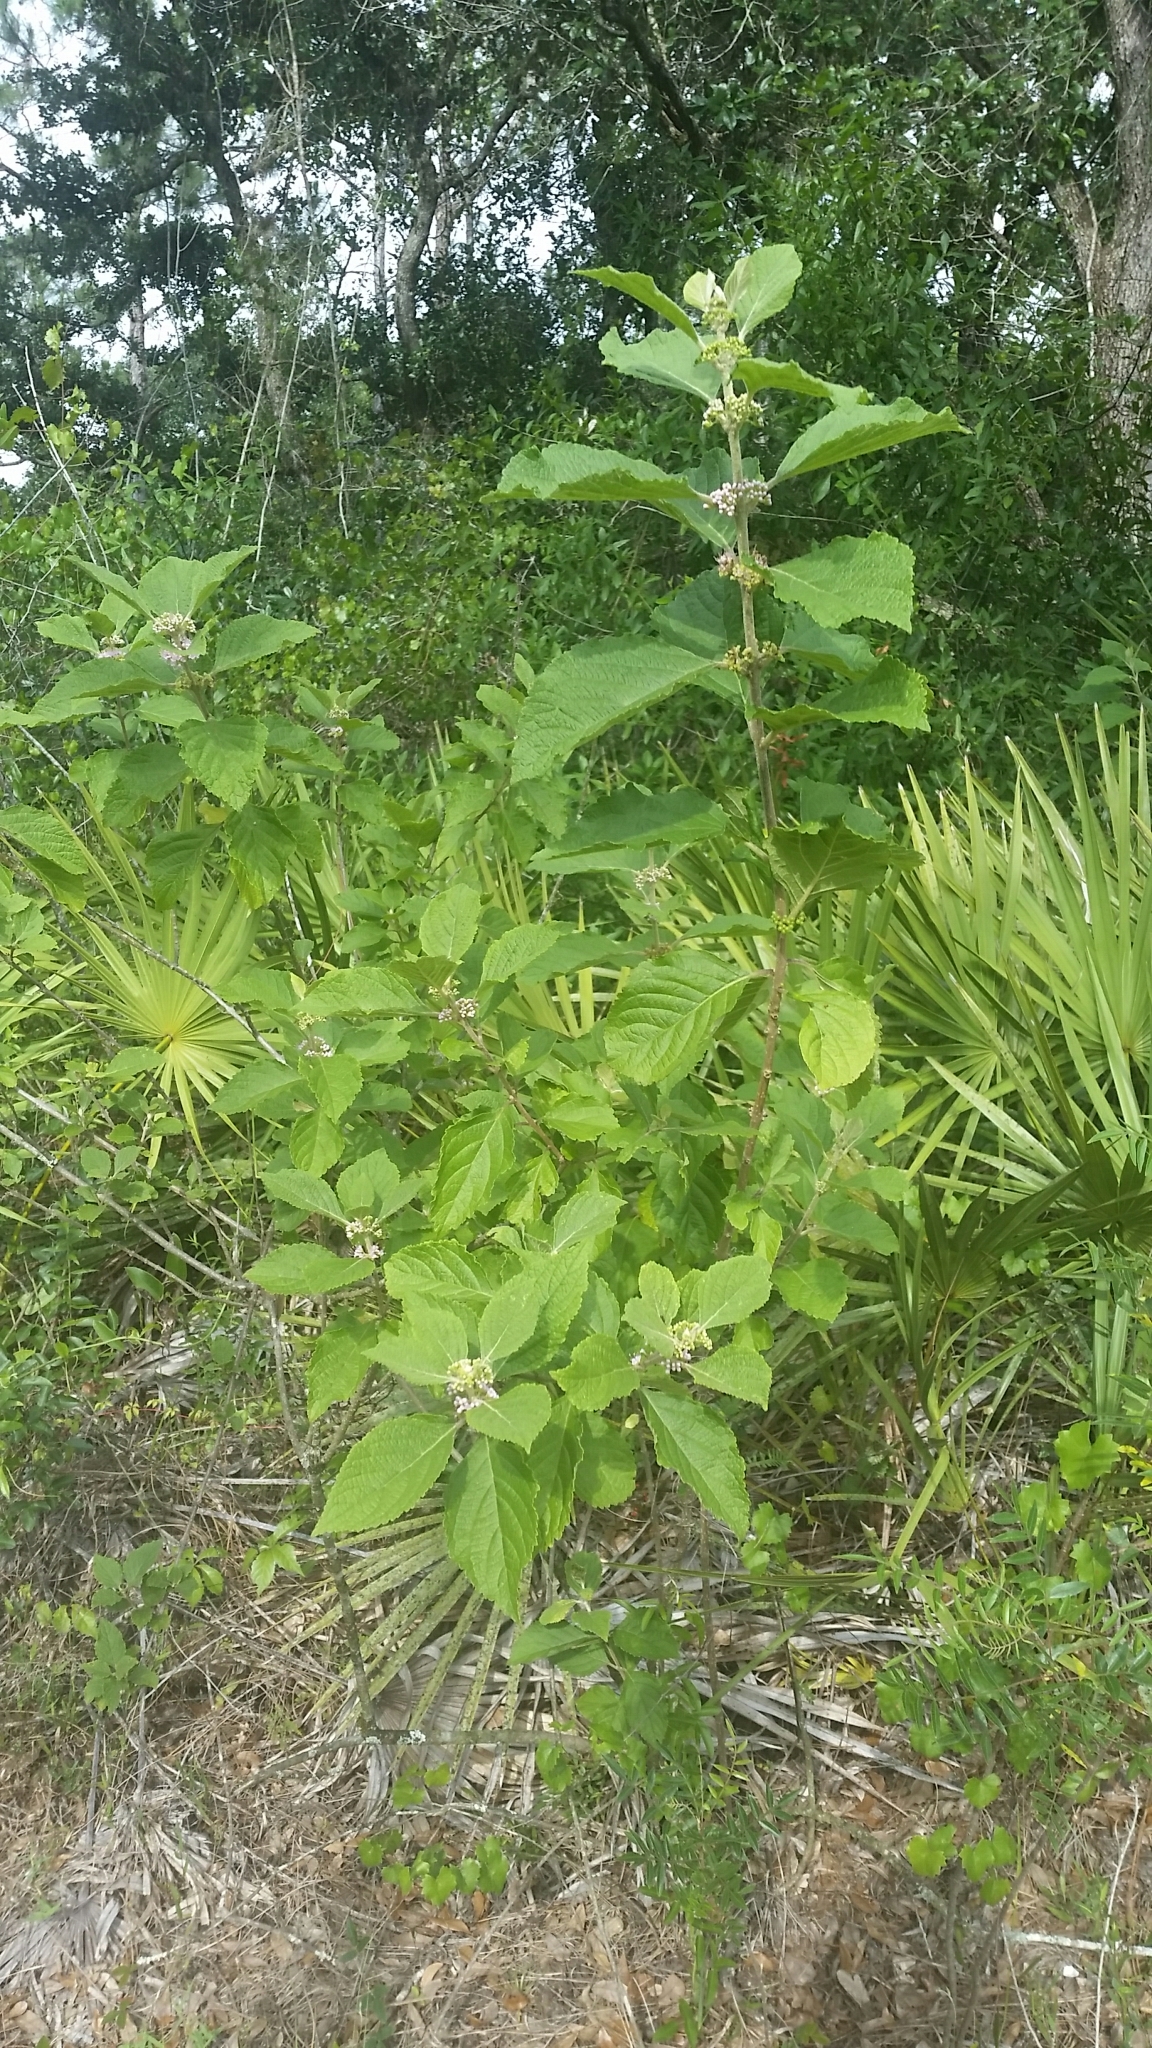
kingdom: Plantae
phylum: Tracheophyta
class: Magnoliopsida
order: Lamiales
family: Lamiaceae
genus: Callicarpa
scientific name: Callicarpa americana
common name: American beautyberry
